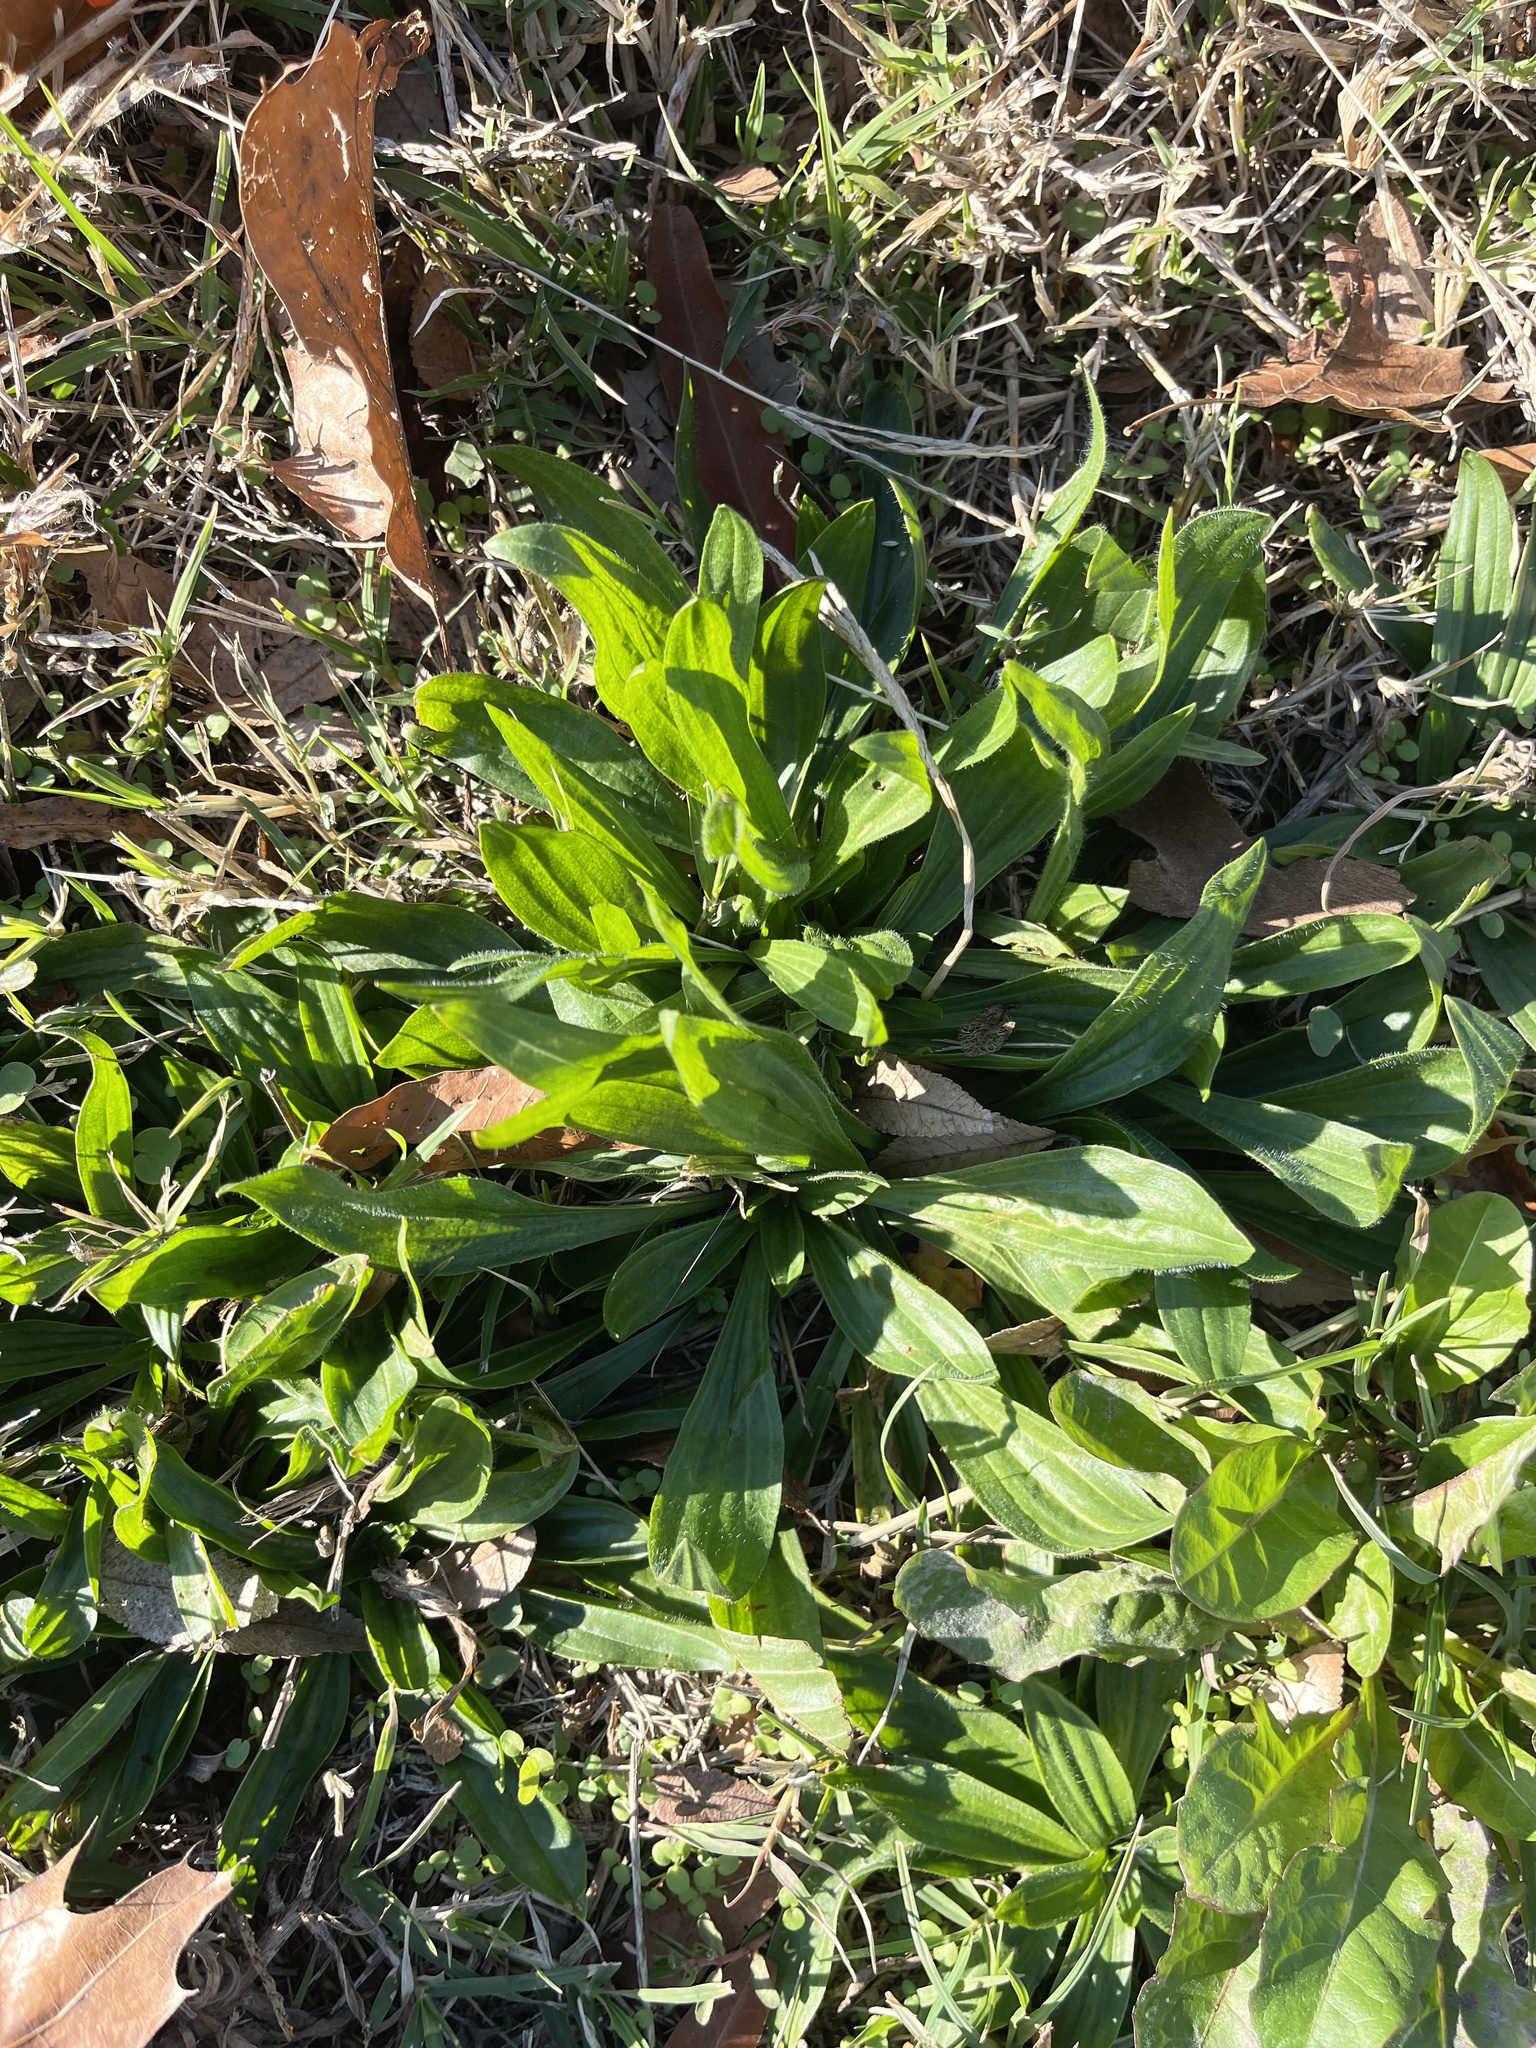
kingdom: Plantae
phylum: Tracheophyta
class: Magnoliopsida
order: Lamiales
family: Plantaginaceae
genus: Plantago
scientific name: Plantago lanceolata
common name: Ribwort plantain
